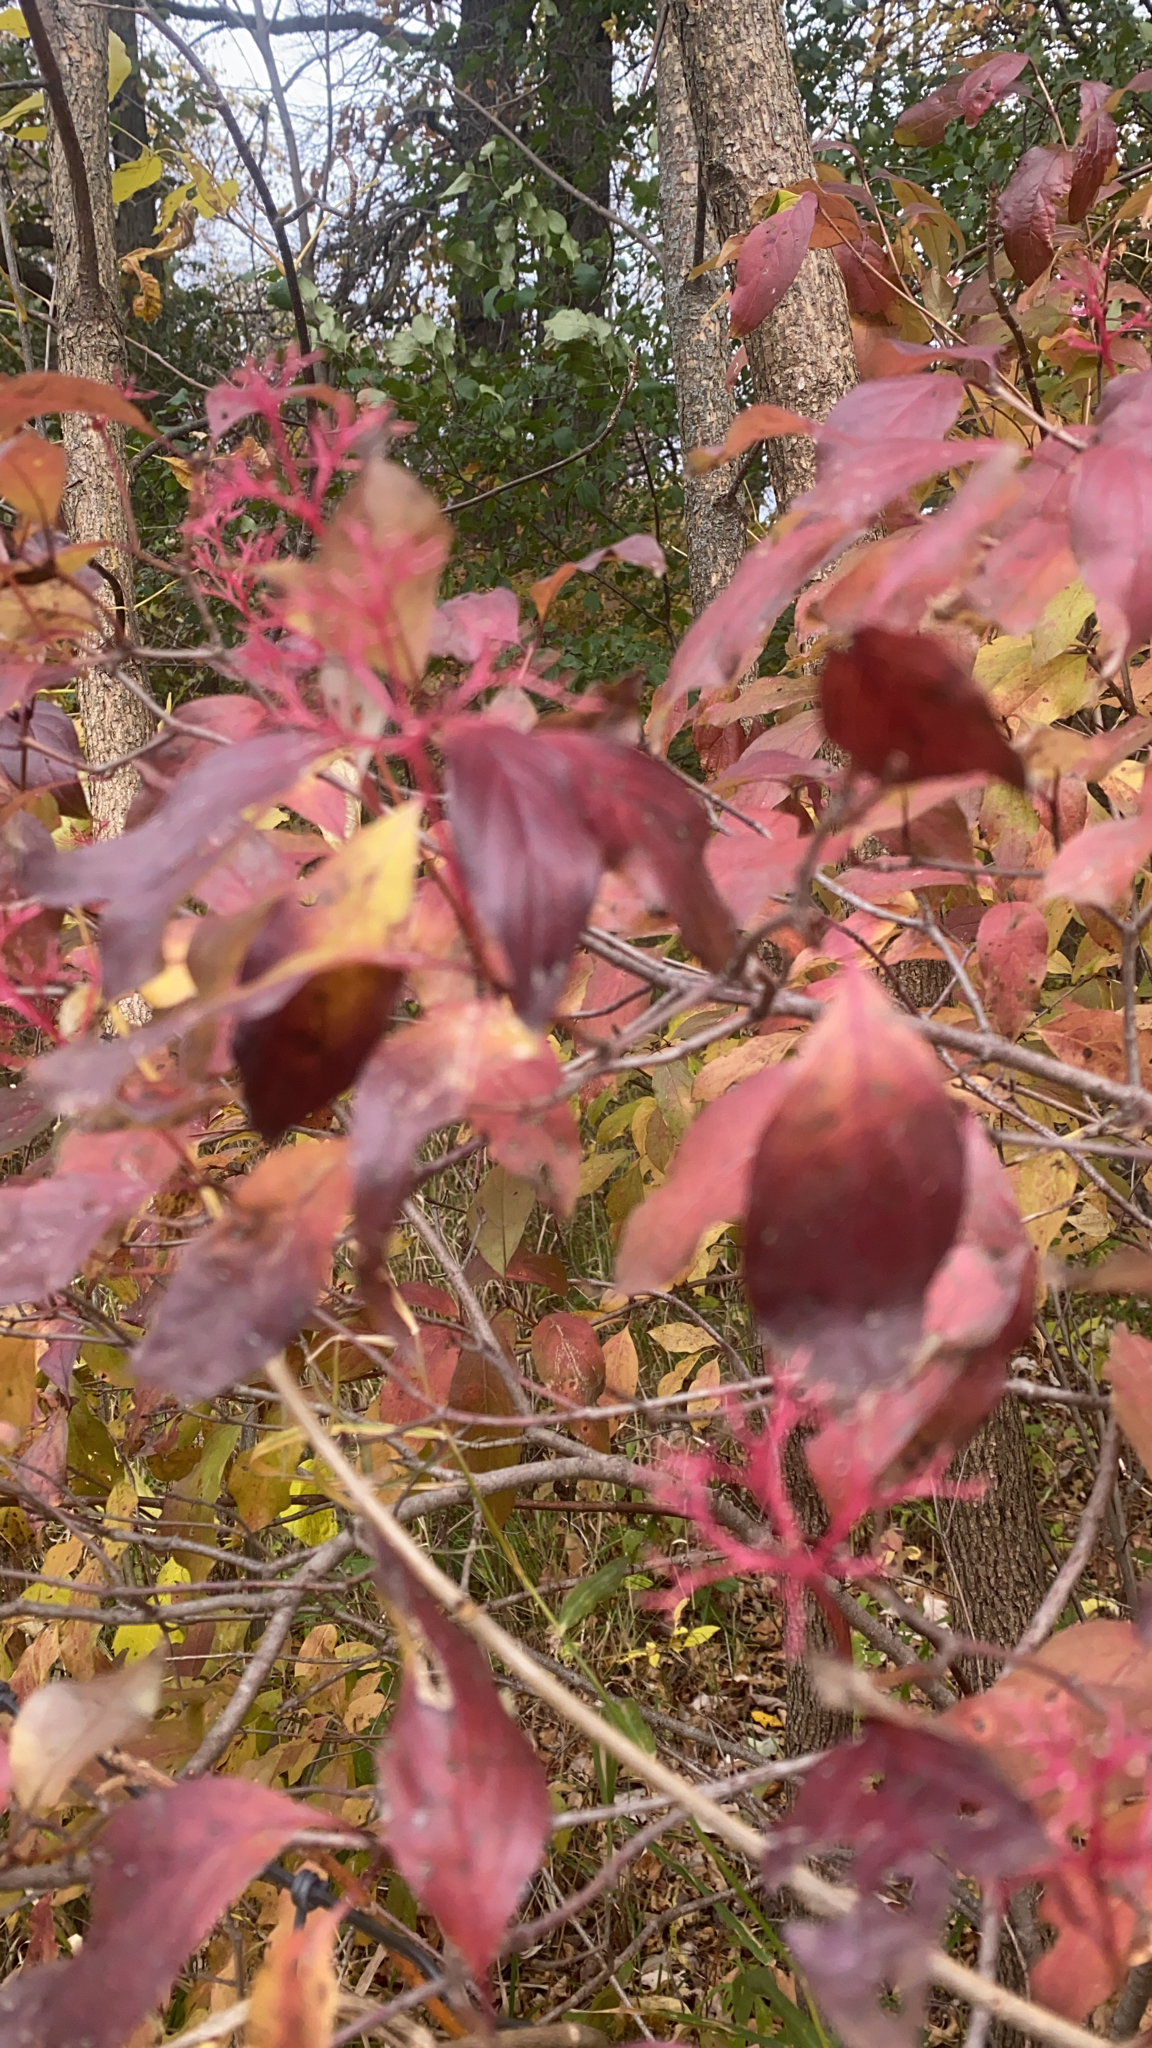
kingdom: Plantae
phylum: Tracheophyta
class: Magnoliopsida
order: Cornales
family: Cornaceae
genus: Cornus
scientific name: Cornus racemosa
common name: Panicled dogwood
